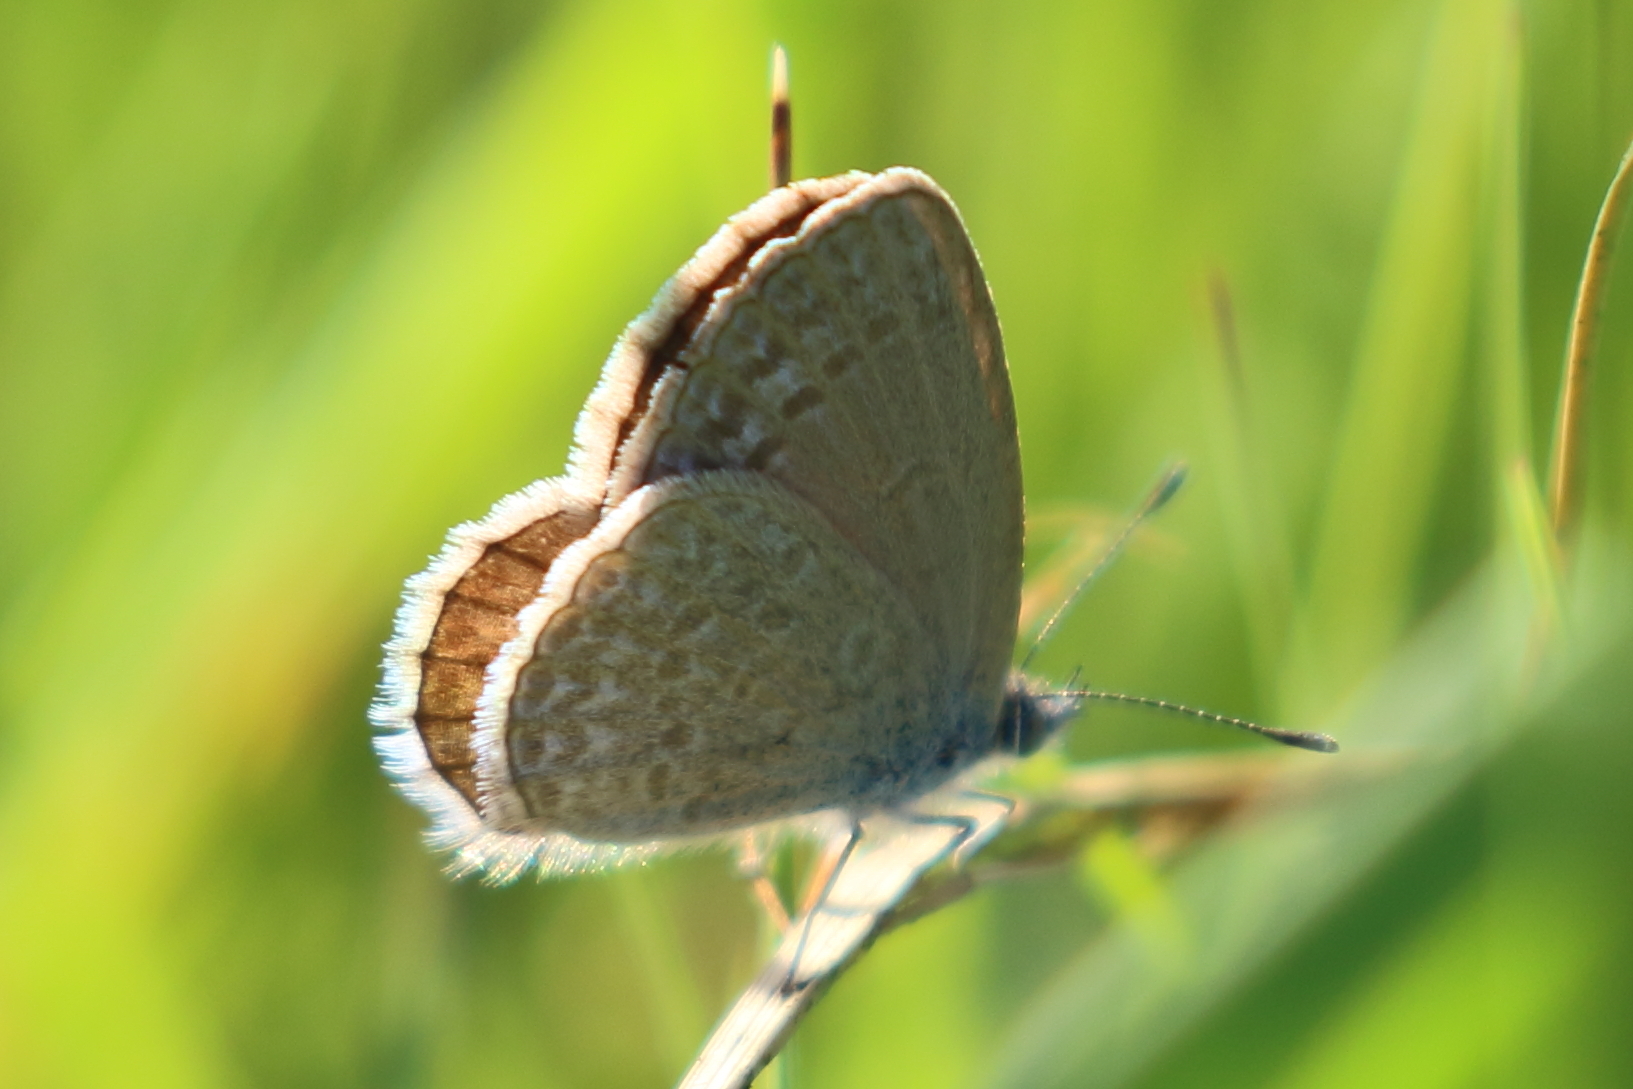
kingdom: Animalia
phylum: Arthropoda
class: Insecta
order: Lepidoptera
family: Lycaenidae
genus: Zizina
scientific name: Zizina labradus
